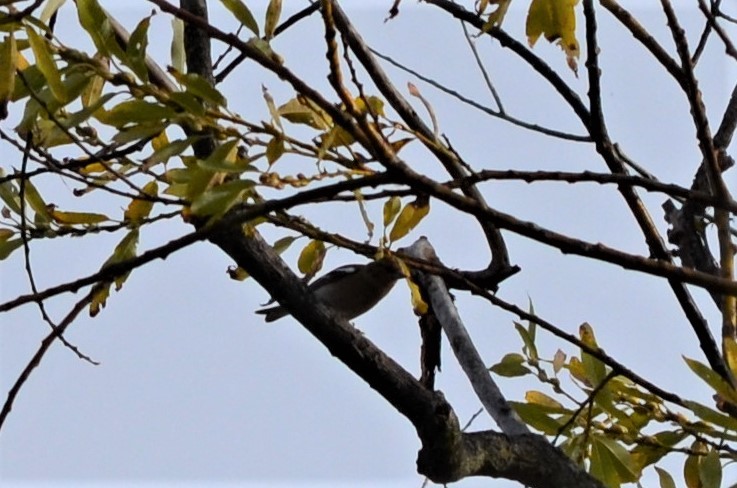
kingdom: Animalia
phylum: Chordata
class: Aves
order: Passeriformes
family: Fringillidae
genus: Fringilla
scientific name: Fringilla coelebs
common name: Common chaffinch
